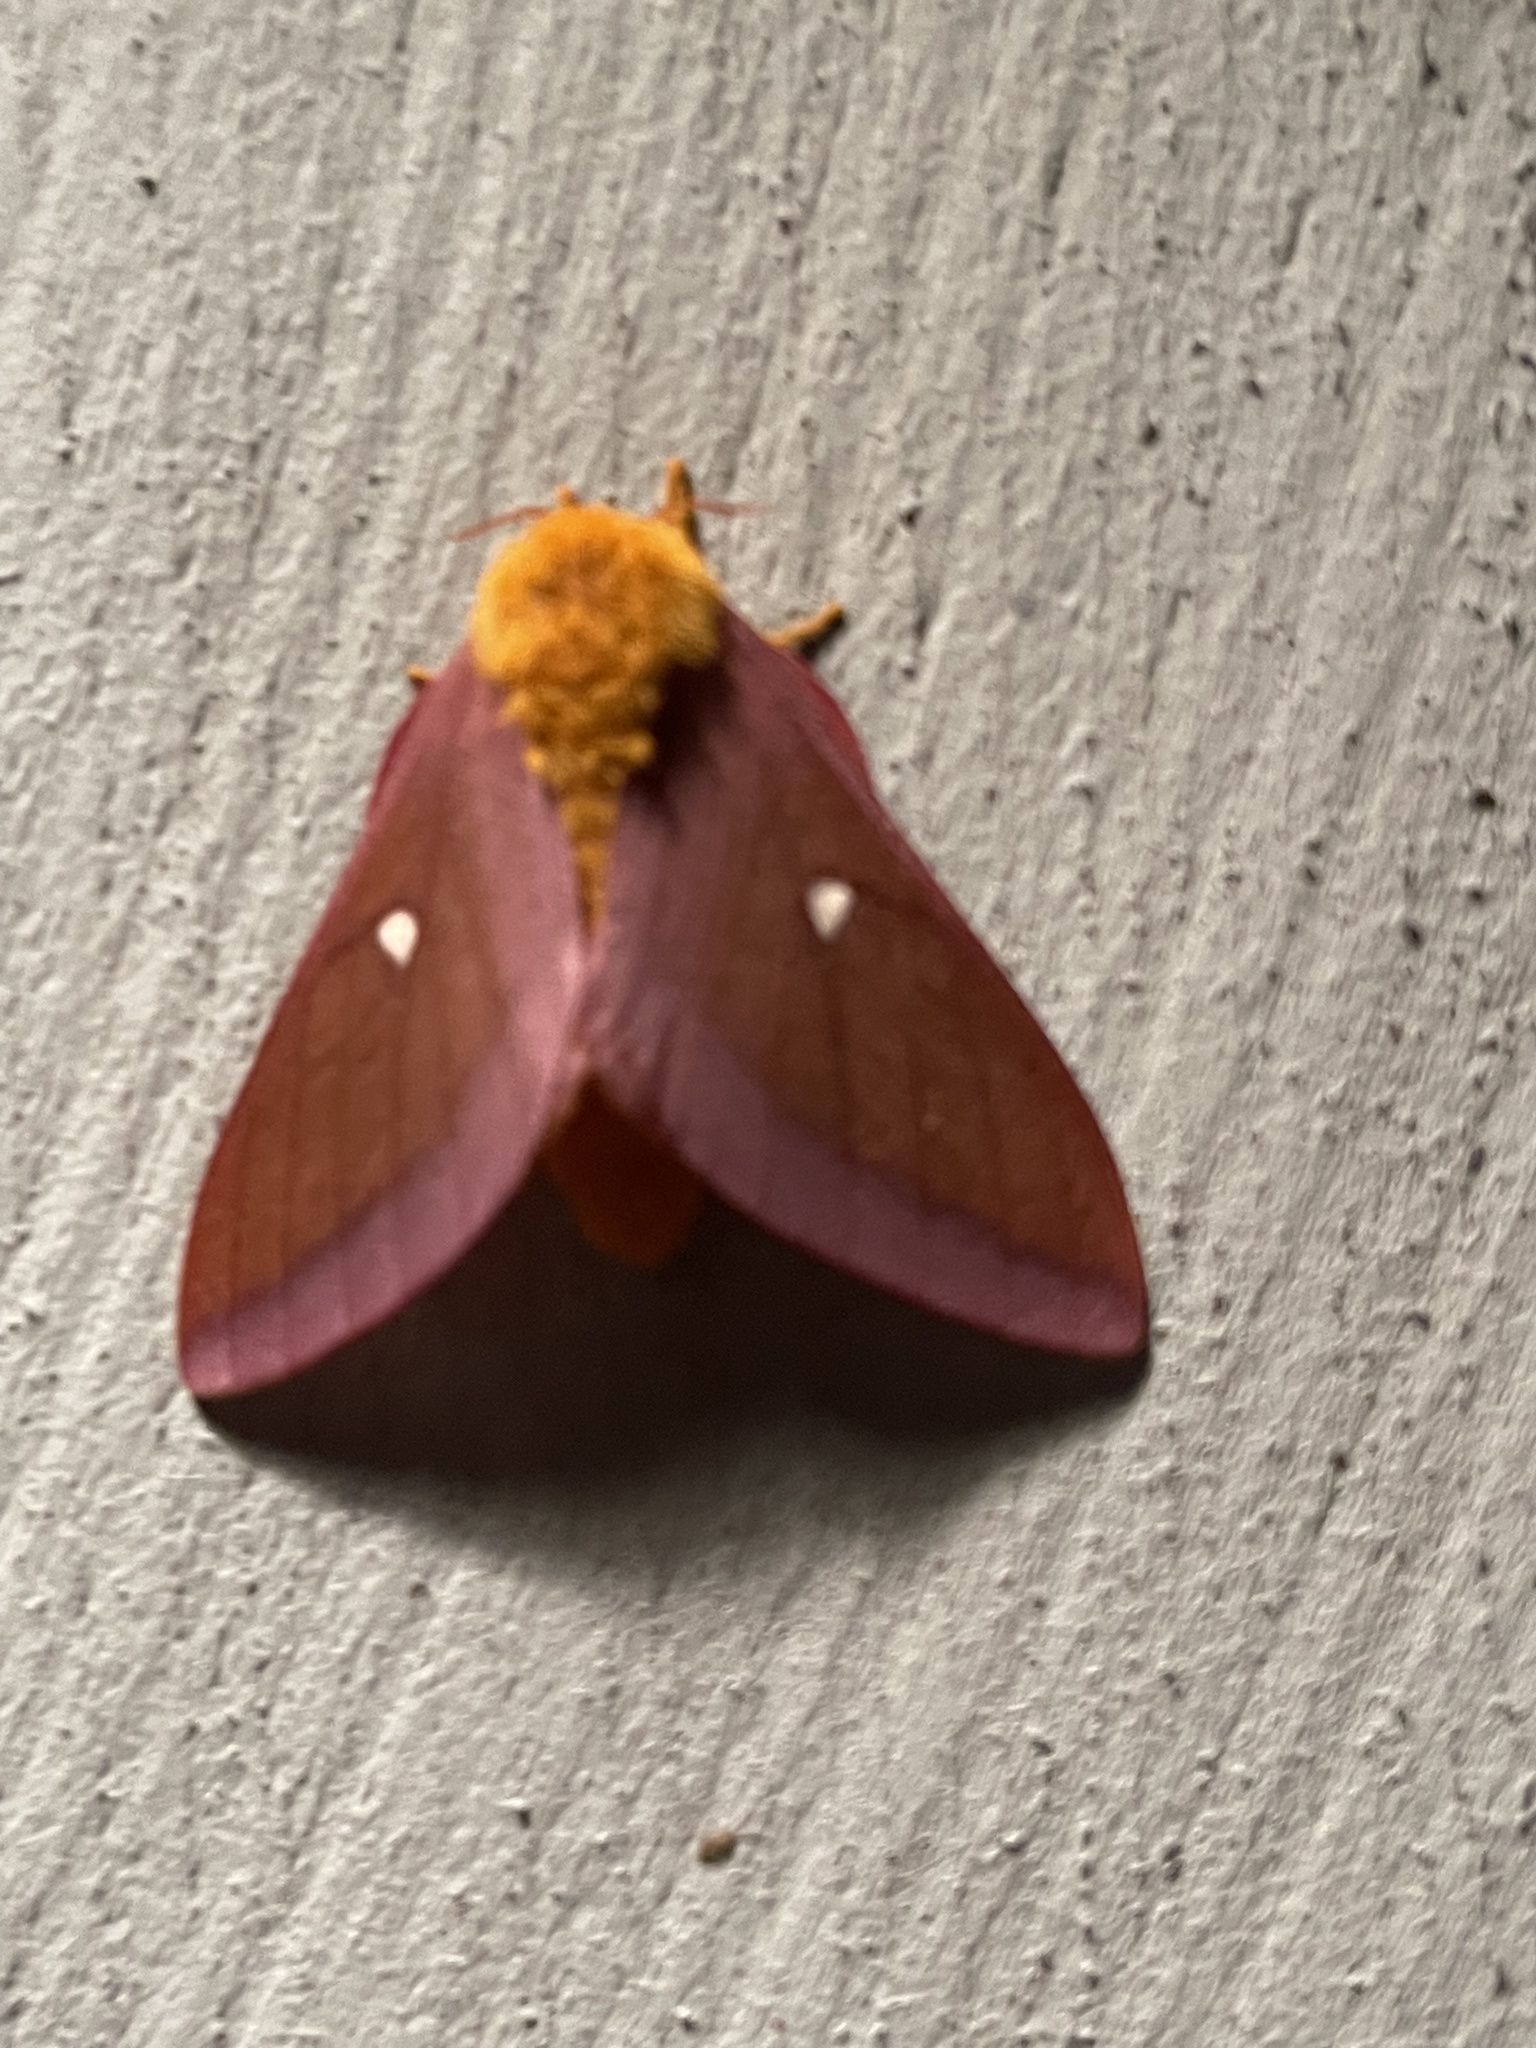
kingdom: Animalia
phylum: Arthropoda
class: Insecta
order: Lepidoptera
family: Saturniidae
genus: Anisota
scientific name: Anisota virginiensis
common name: Pink striped oakworm moth
